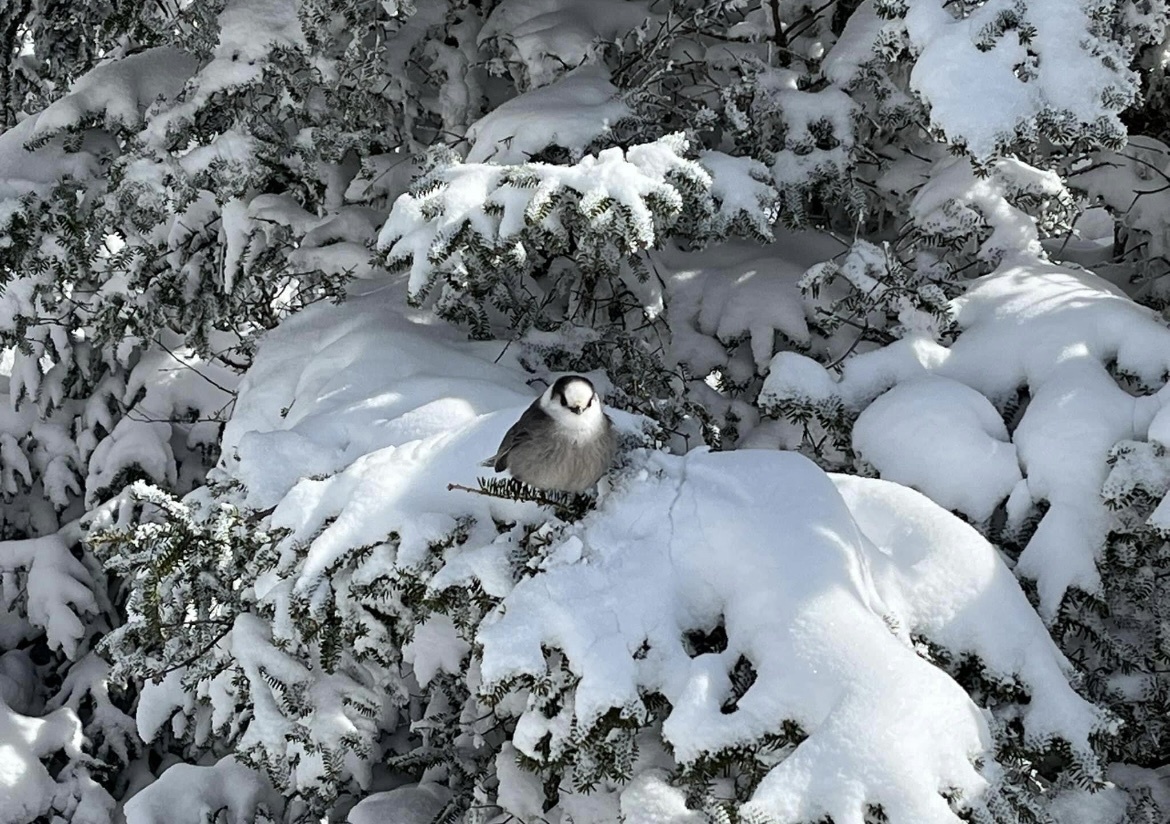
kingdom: Animalia
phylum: Chordata
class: Aves
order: Passeriformes
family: Corvidae
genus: Perisoreus
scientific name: Perisoreus canadensis
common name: Gray jay
